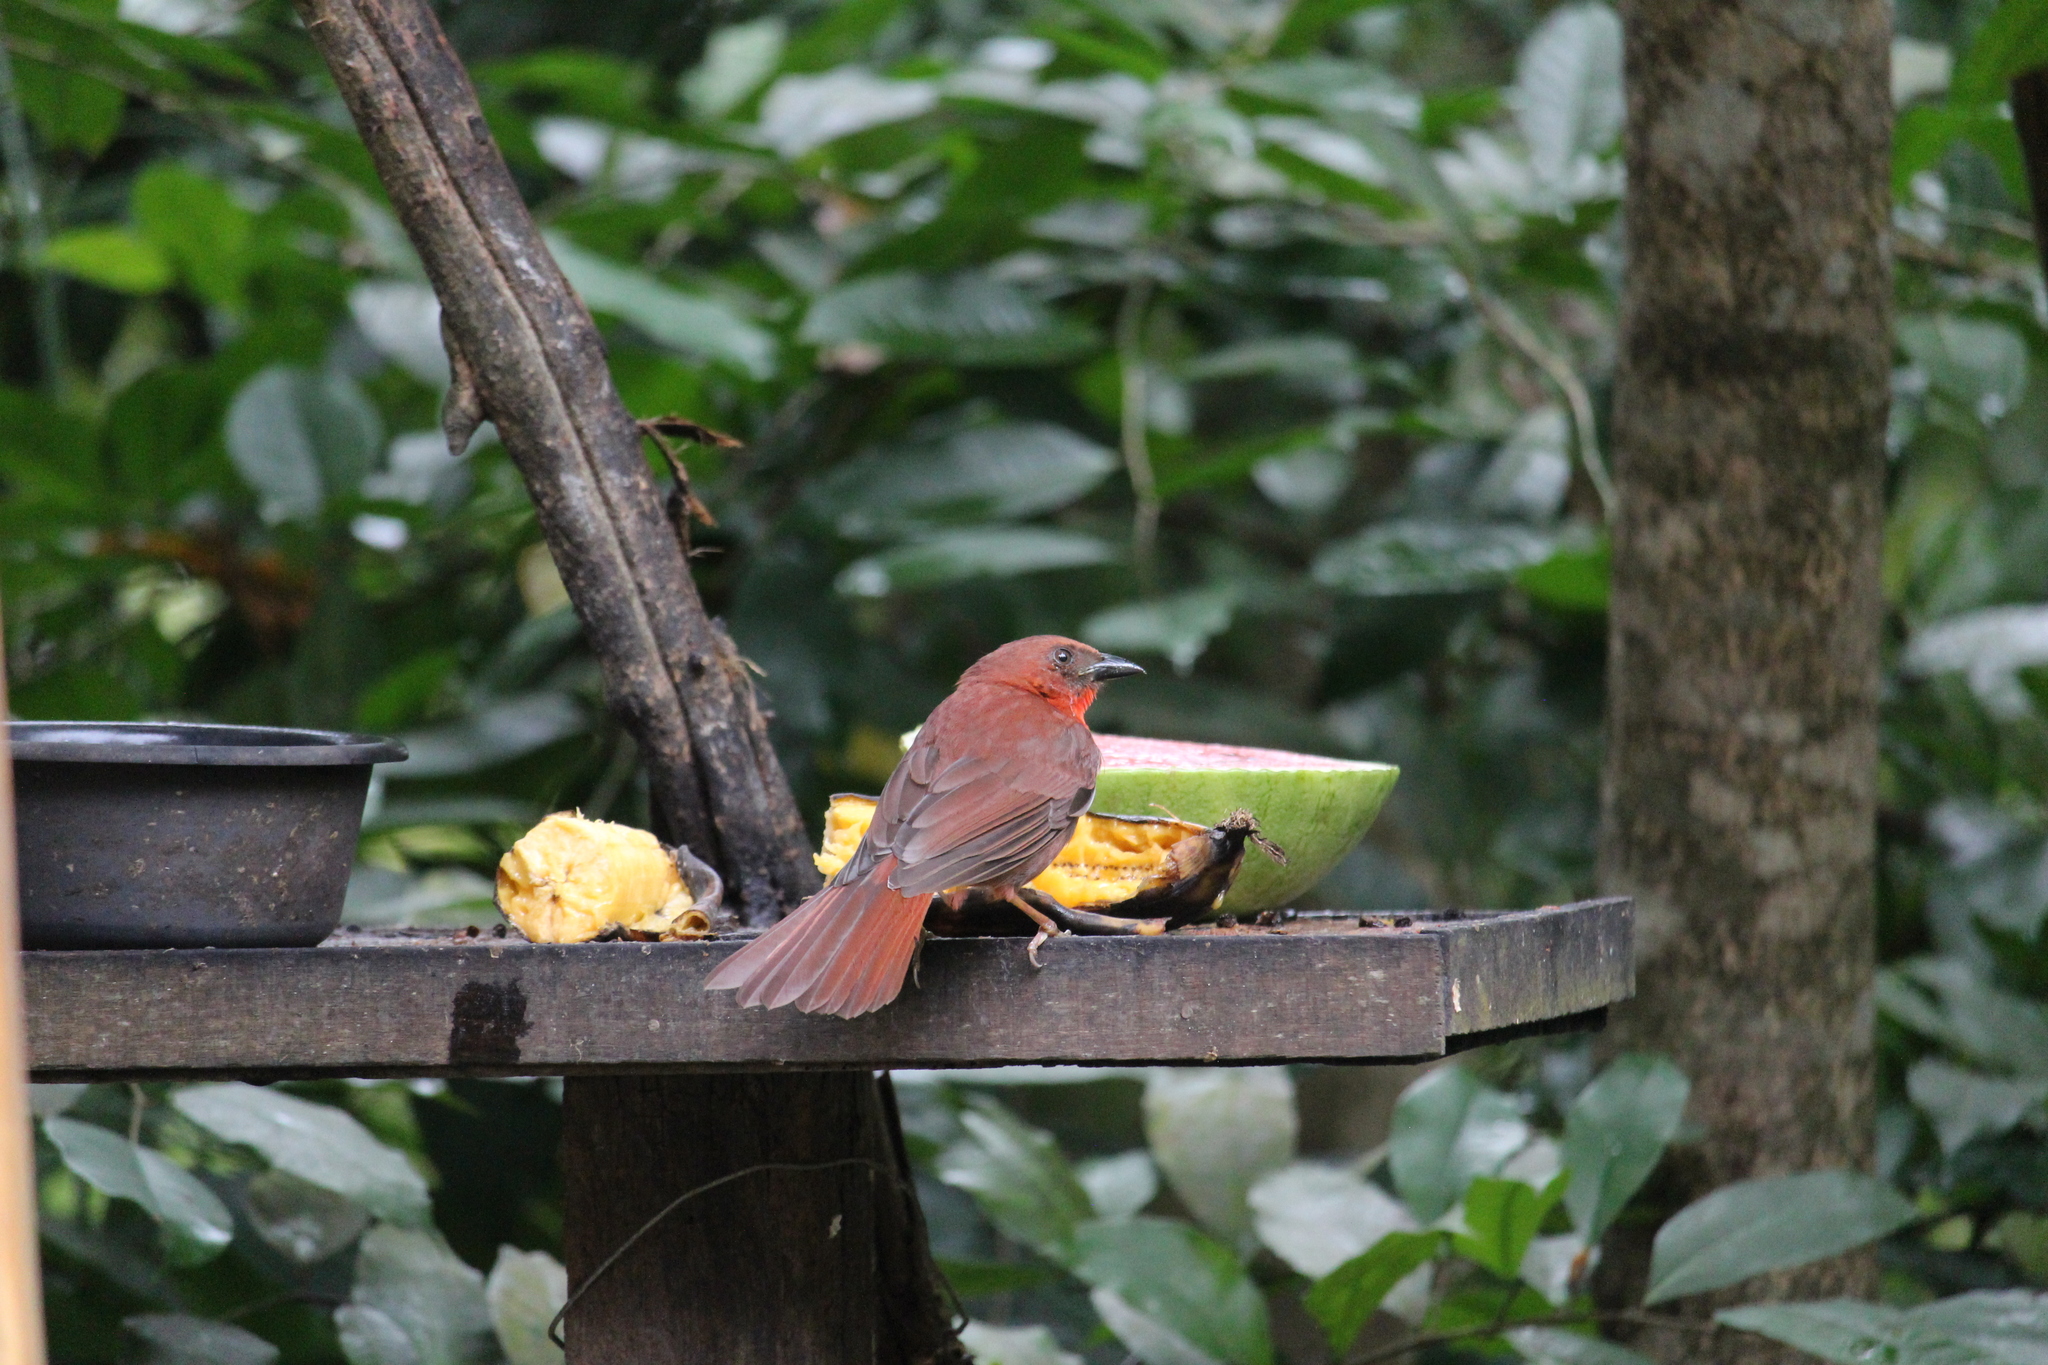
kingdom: Animalia
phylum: Chordata
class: Aves
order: Passeriformes
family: Cardinalidae
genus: Habia
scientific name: Habia fuscicauda
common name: Red-throated ant-tanager
